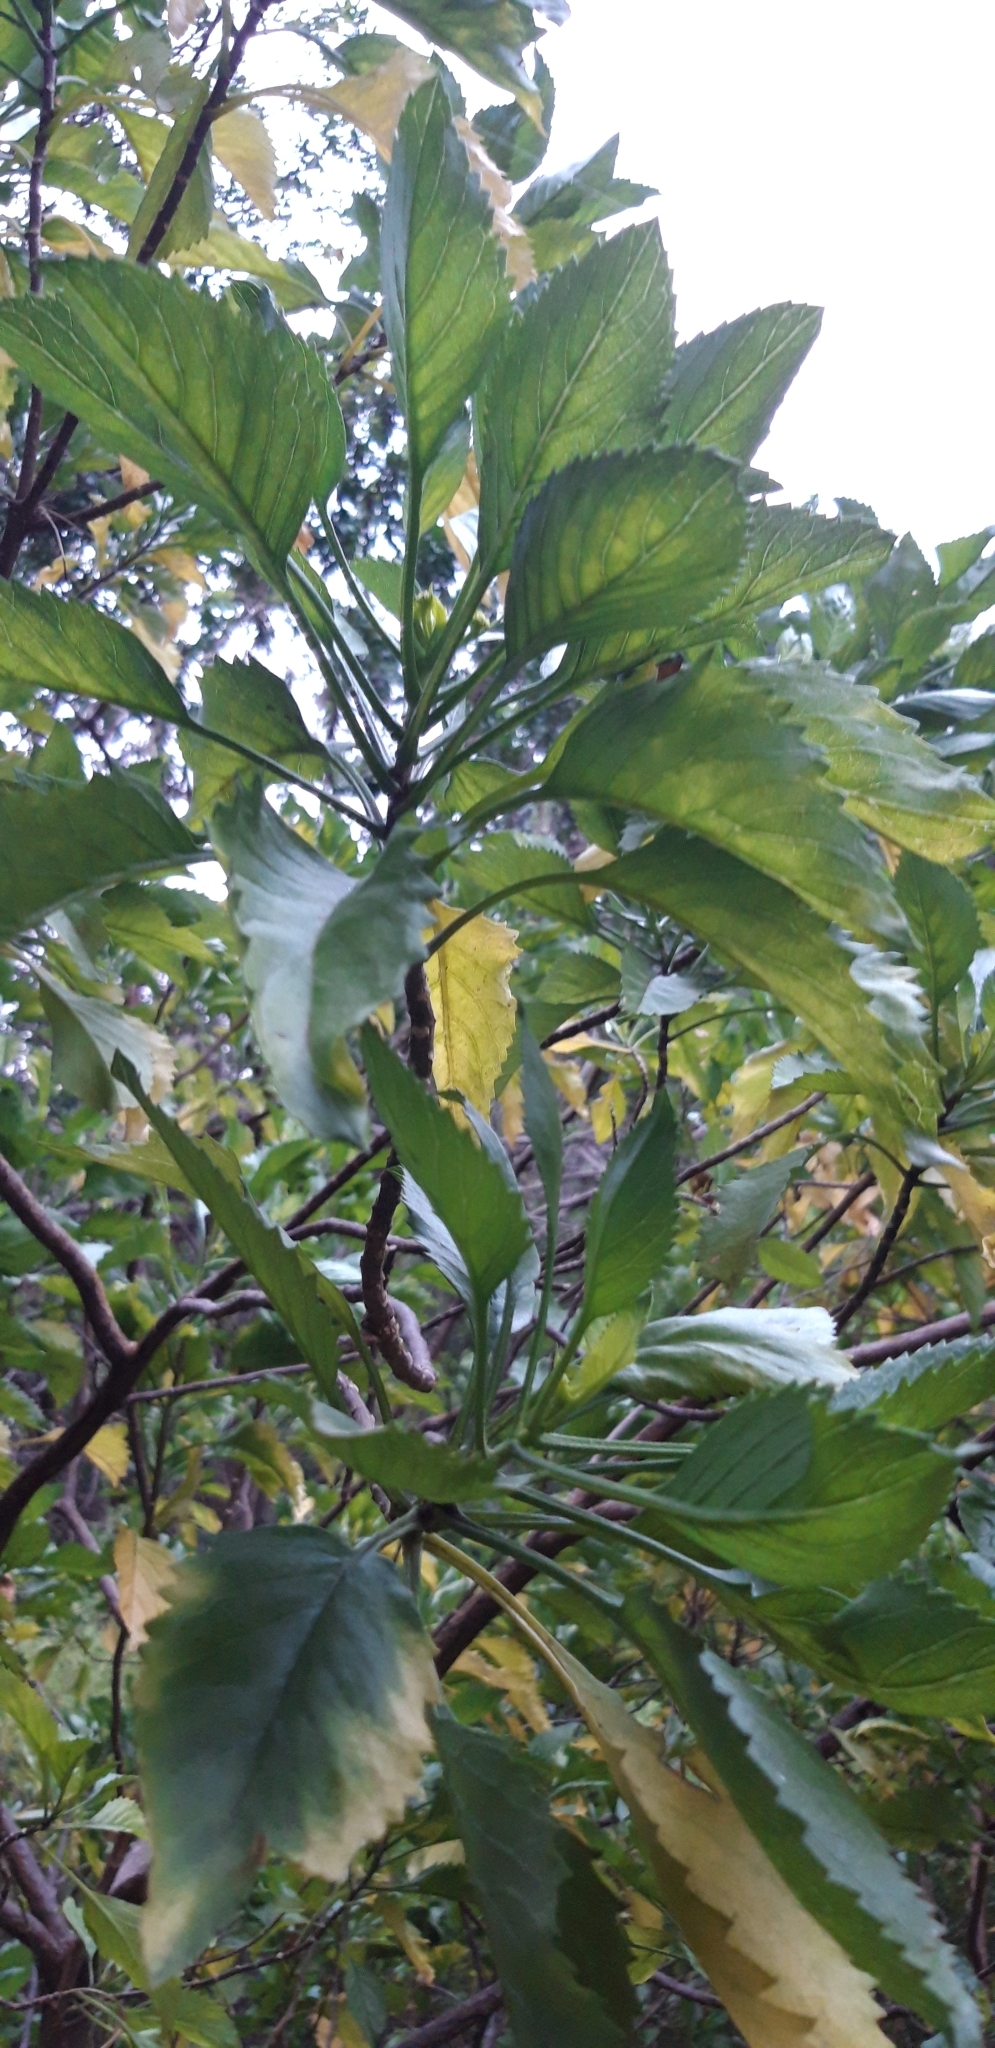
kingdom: Plantae
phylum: Tracheophyta
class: Magnoliopsida
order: Asterales
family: Asteraceae
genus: Commidendrum
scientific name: Commidendrum rotundifolium
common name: Bastard gumwood
